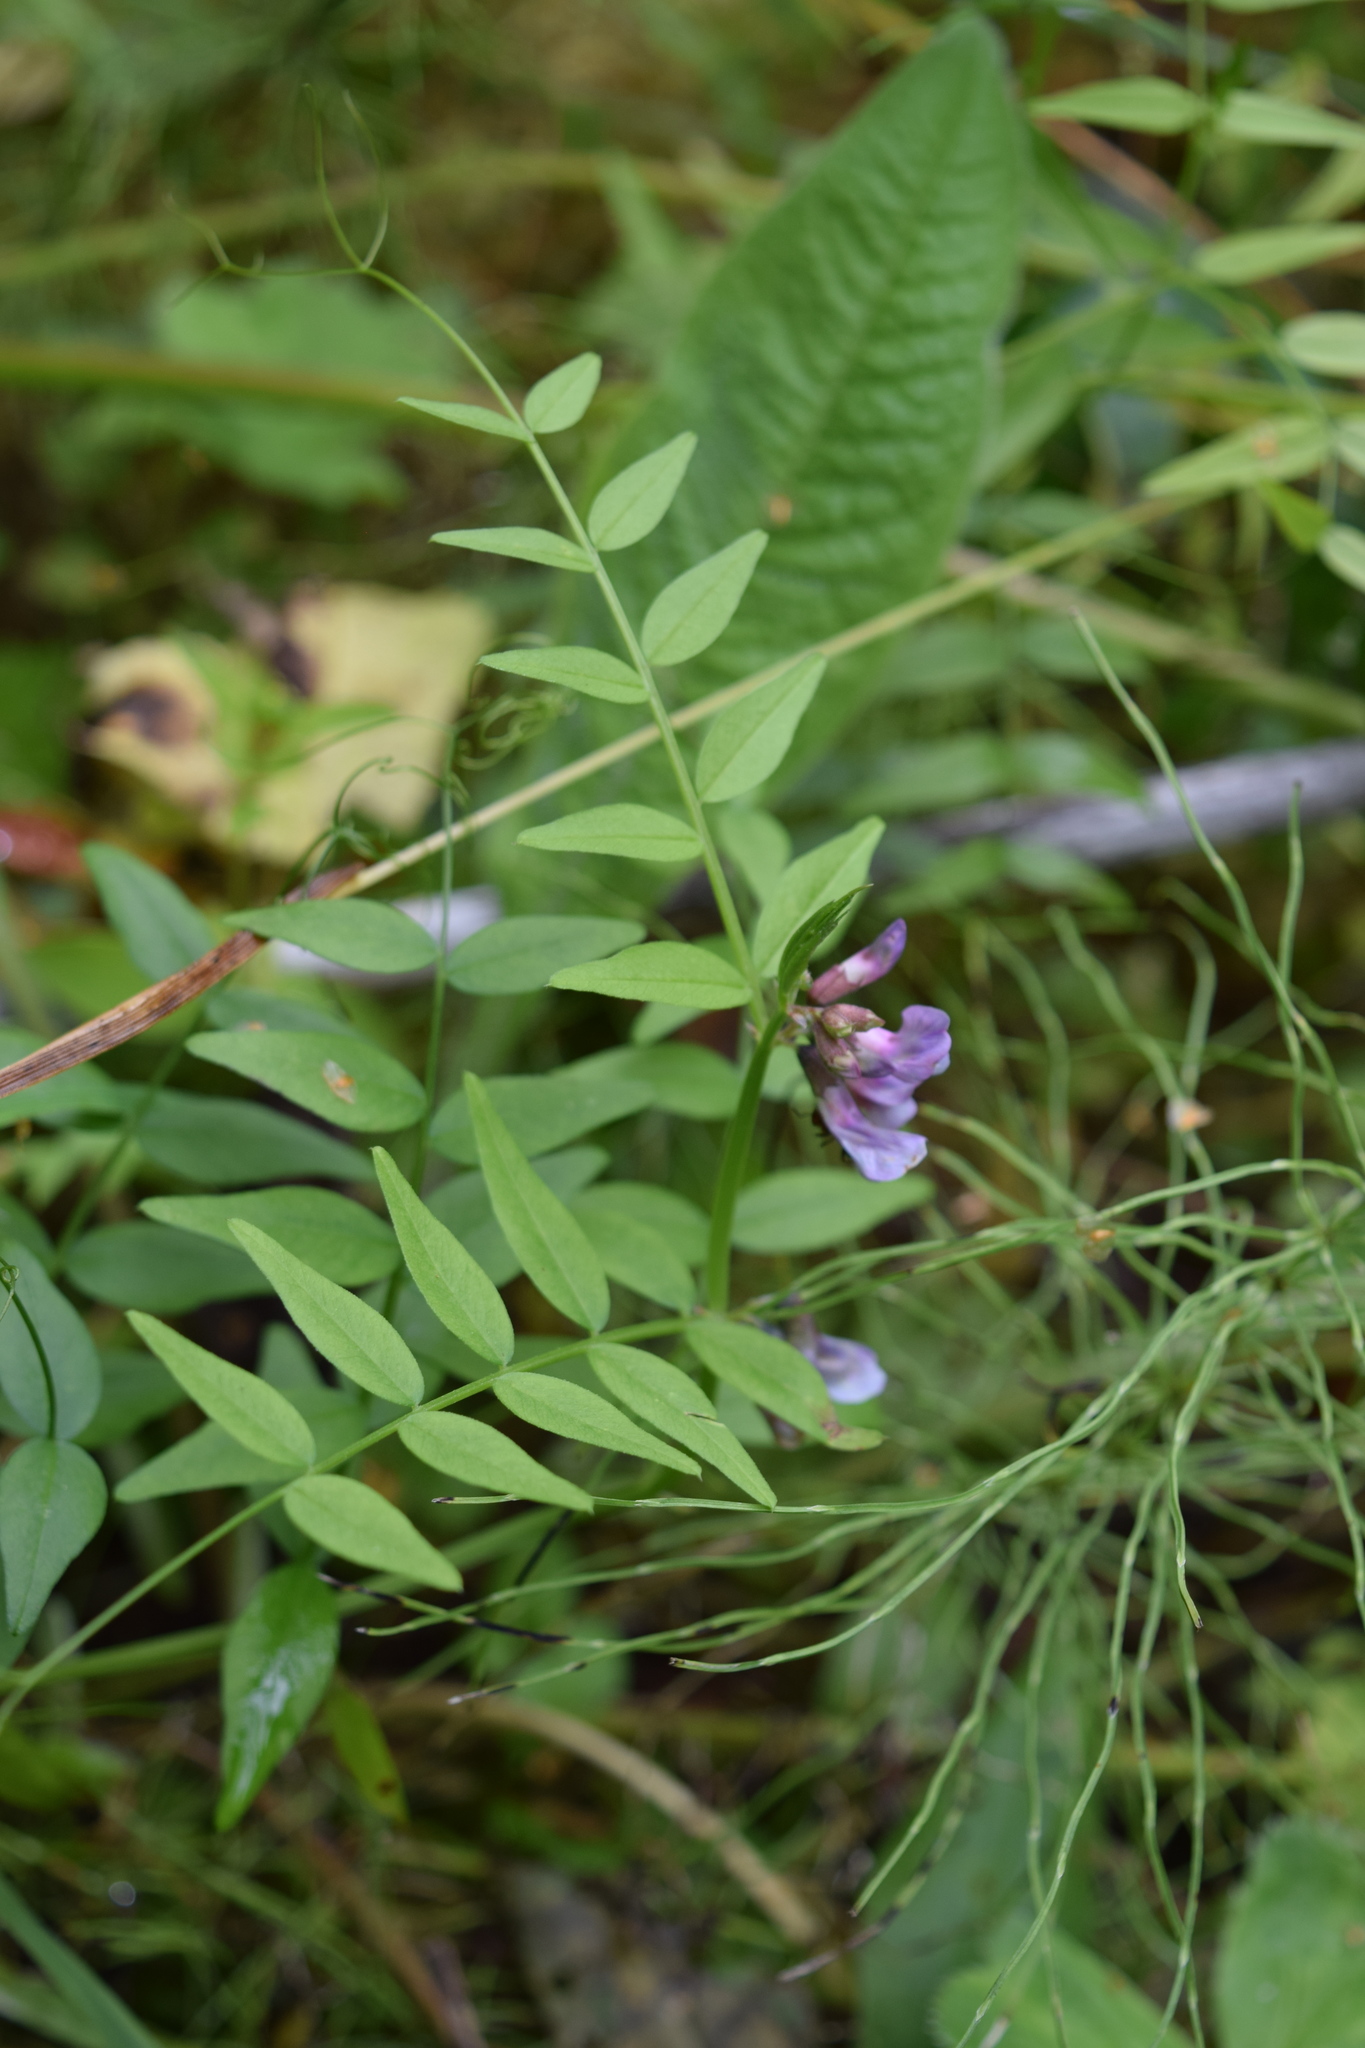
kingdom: Plantae
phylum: Tracheophyta
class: Magnoliopsida
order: Fabales
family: Fabaceae
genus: Vicia
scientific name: Vicia sepium
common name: Bush vetch
